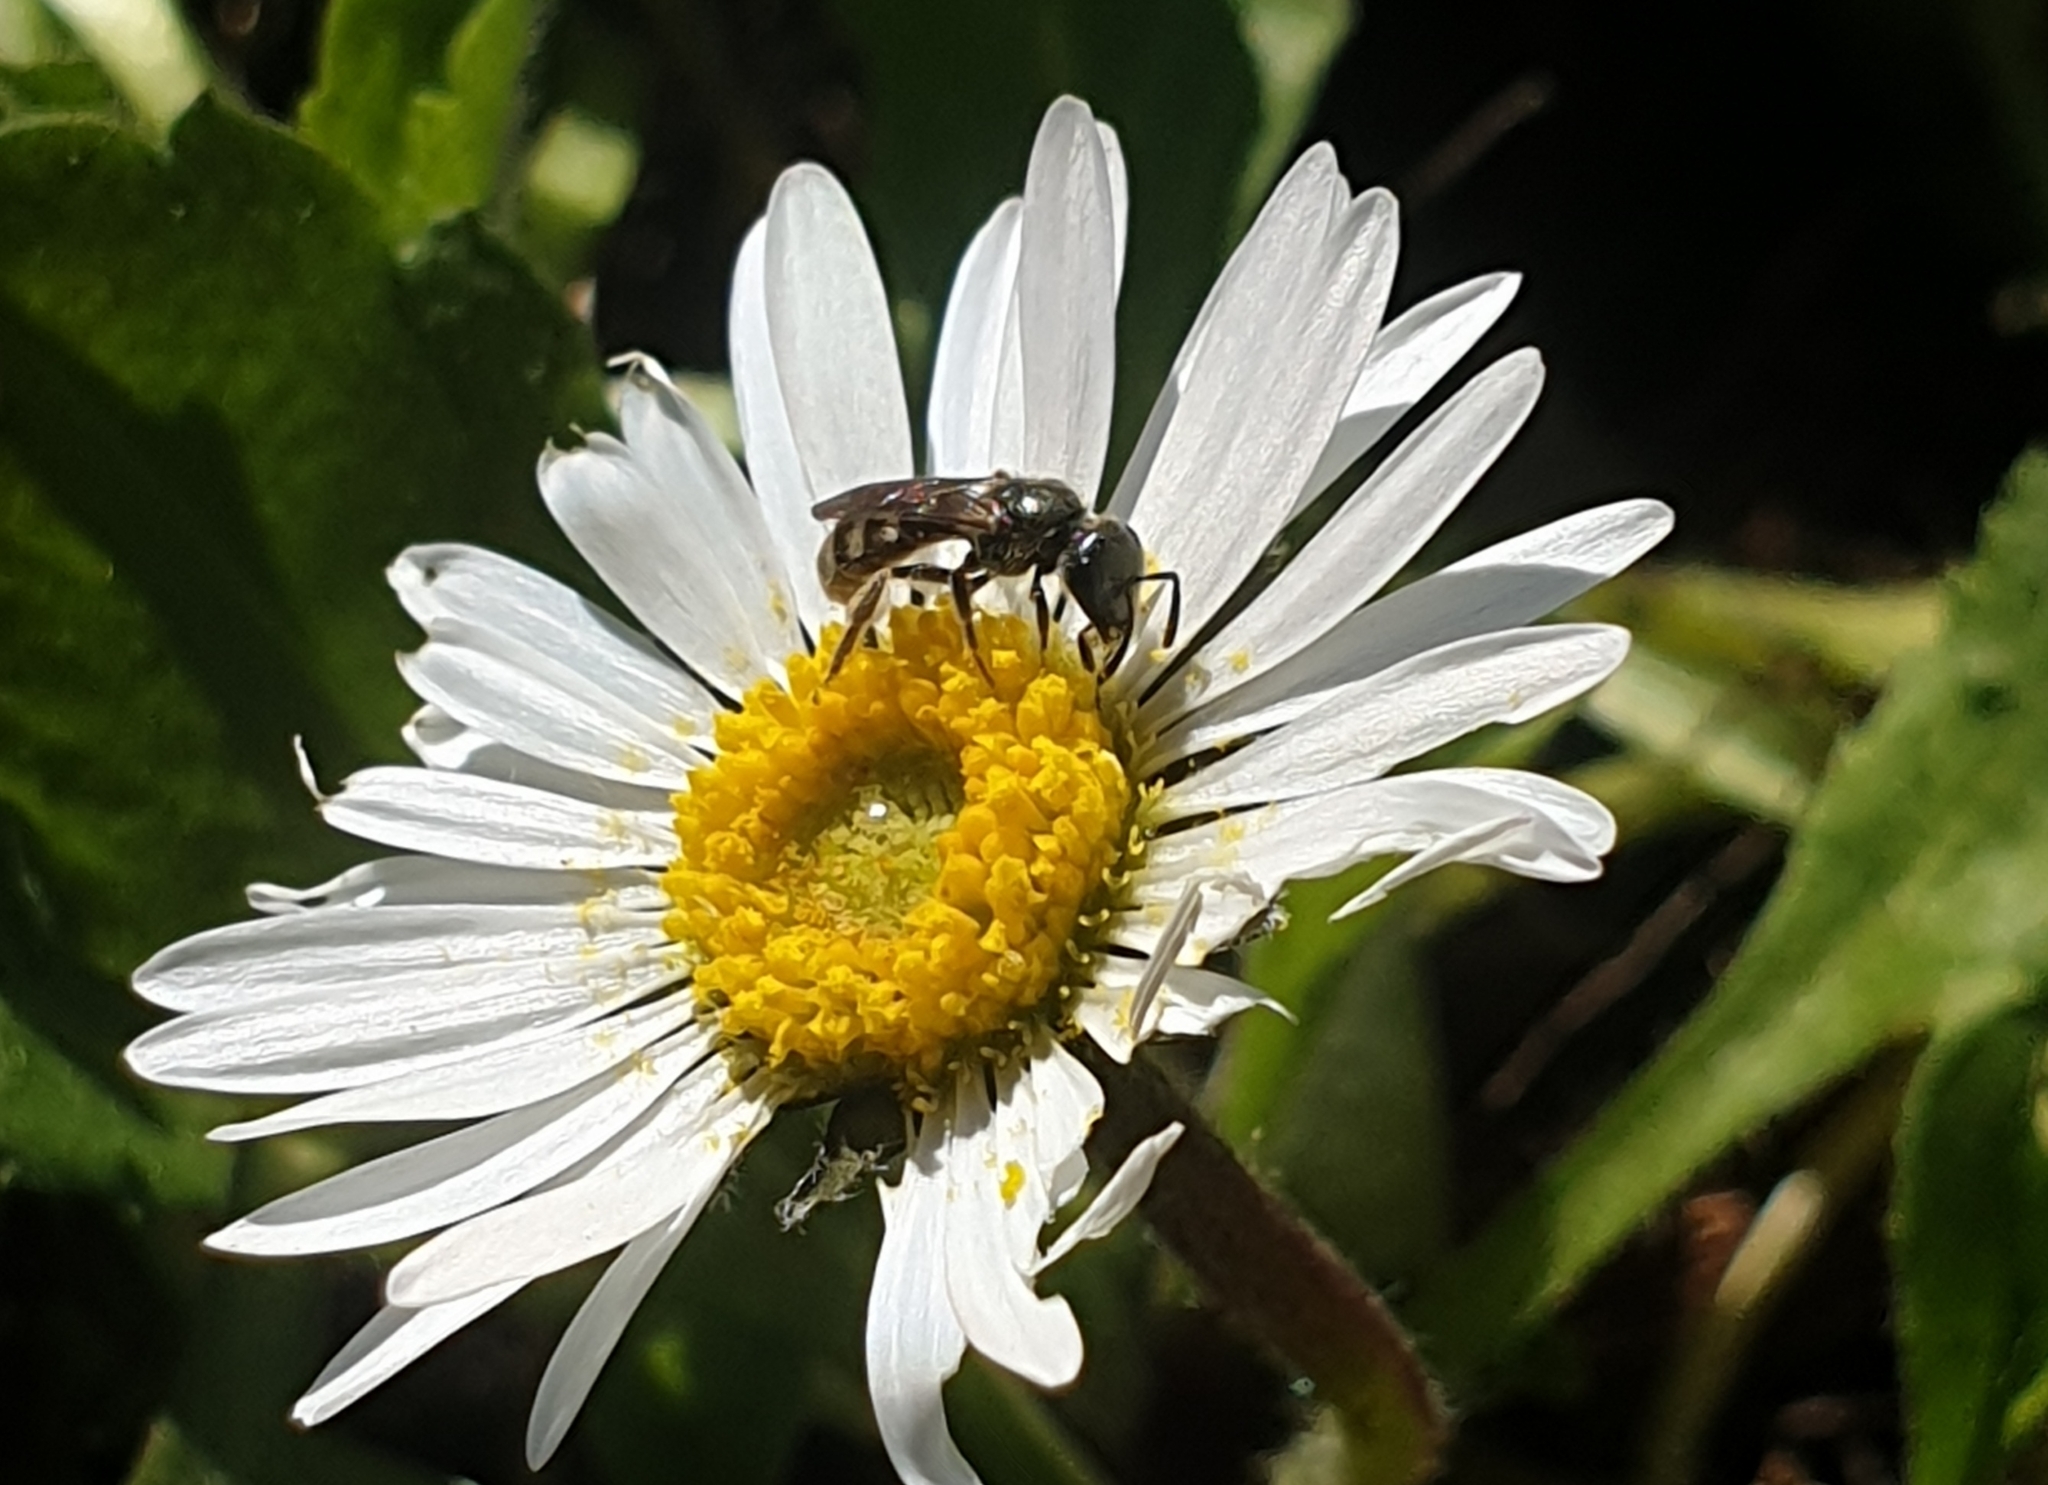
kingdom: Animalia
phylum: Arthropoda
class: Insecta
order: Hymenoptera
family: Halictidae
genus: Dialictus
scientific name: Dialictus
